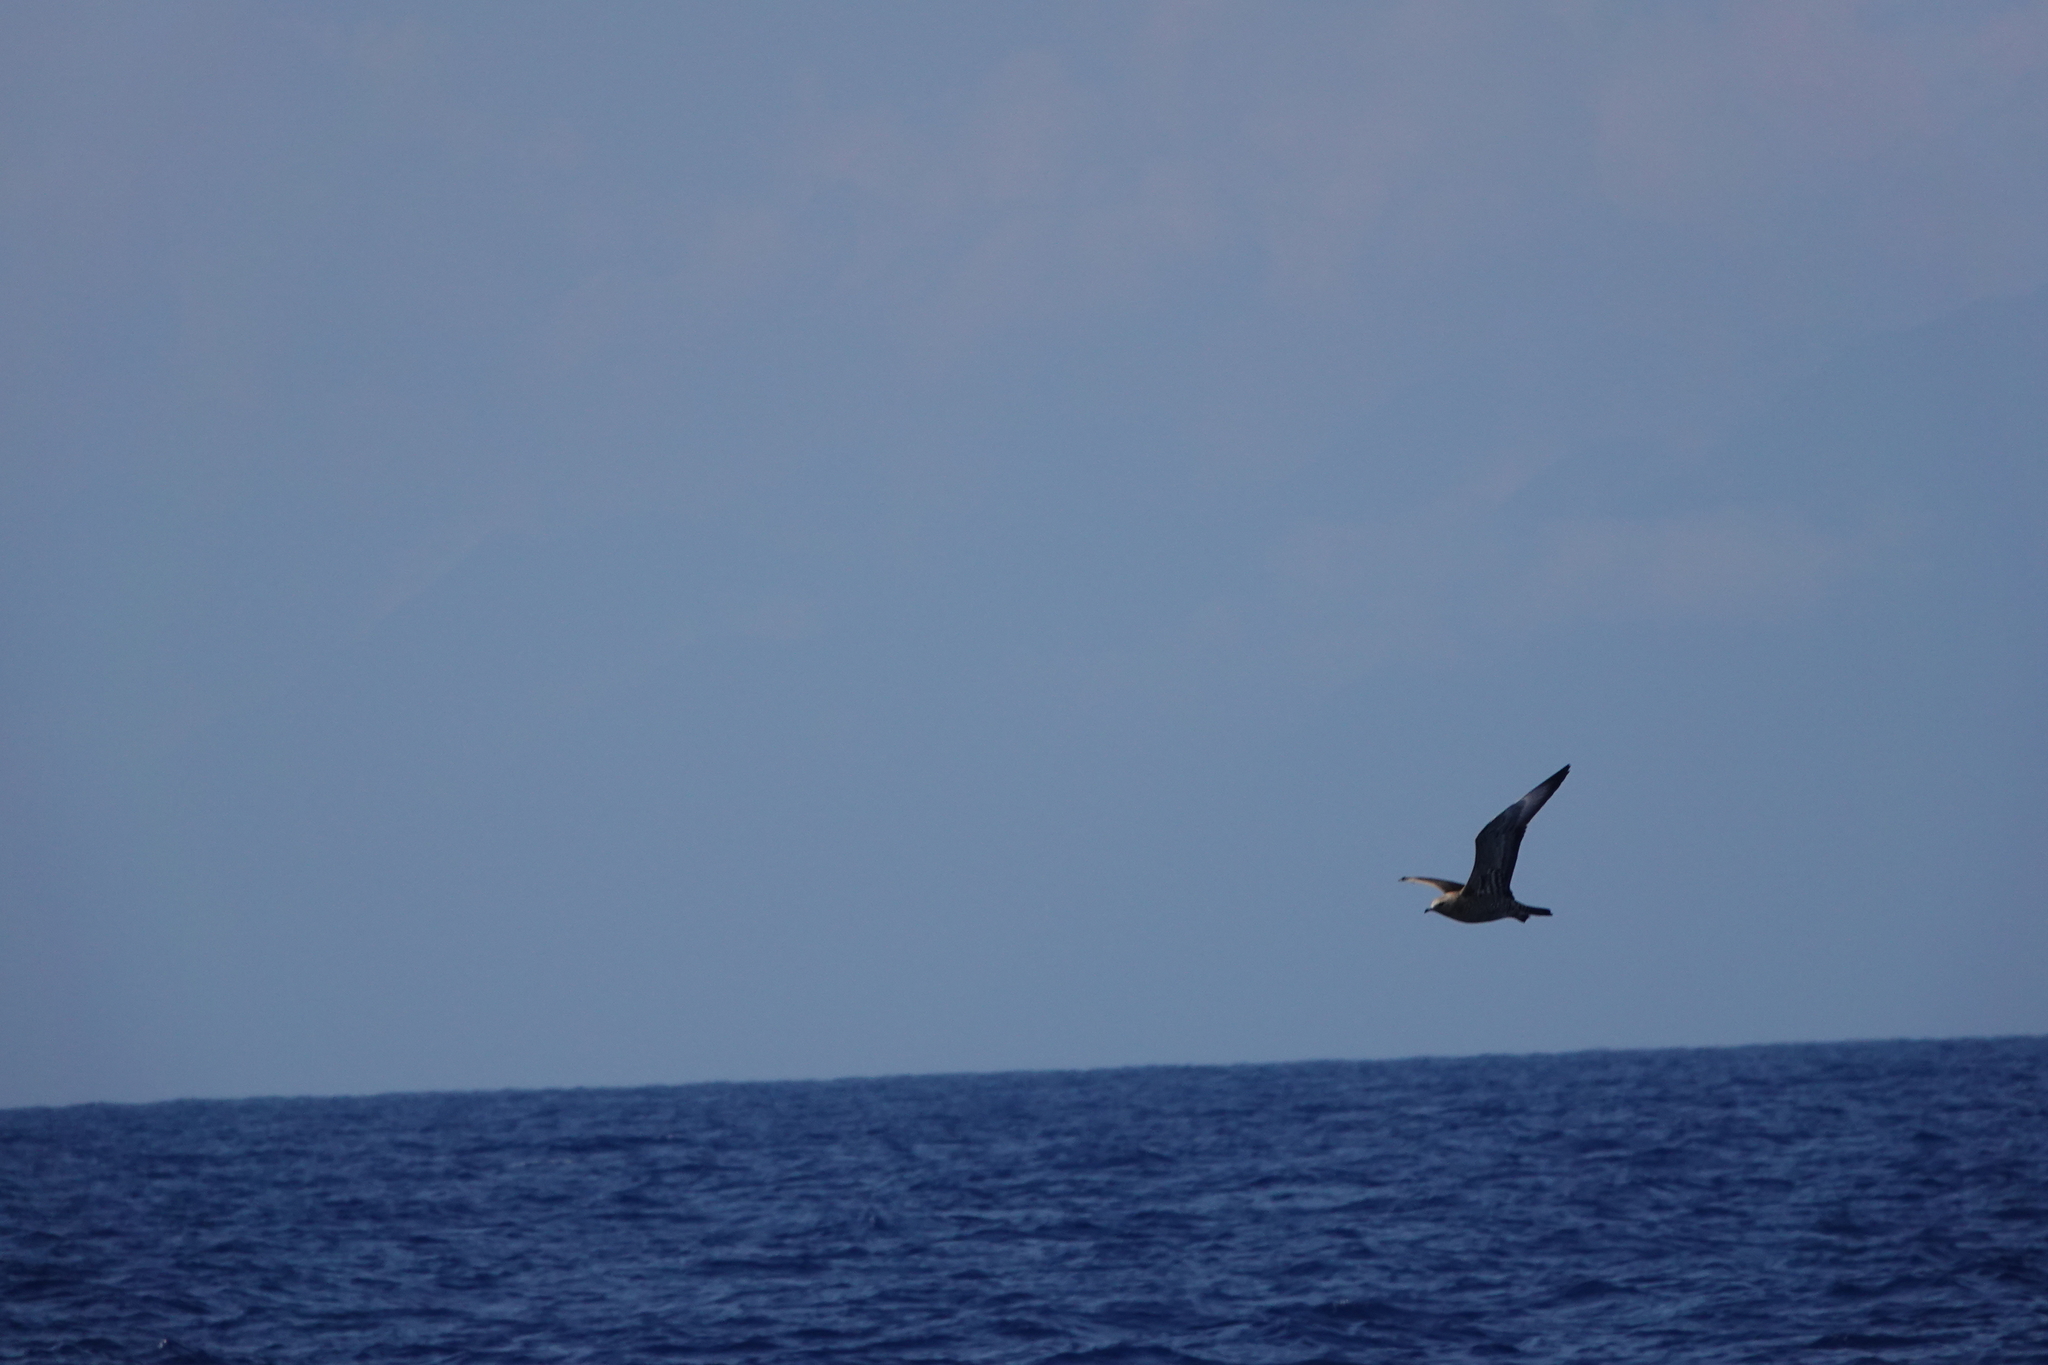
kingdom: Animalia
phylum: Chordata
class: Aves
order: Charadriiformes
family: Stercorariidae
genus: Stercorarius
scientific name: Stercorarius parasiticus
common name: Parasitic jaeger
